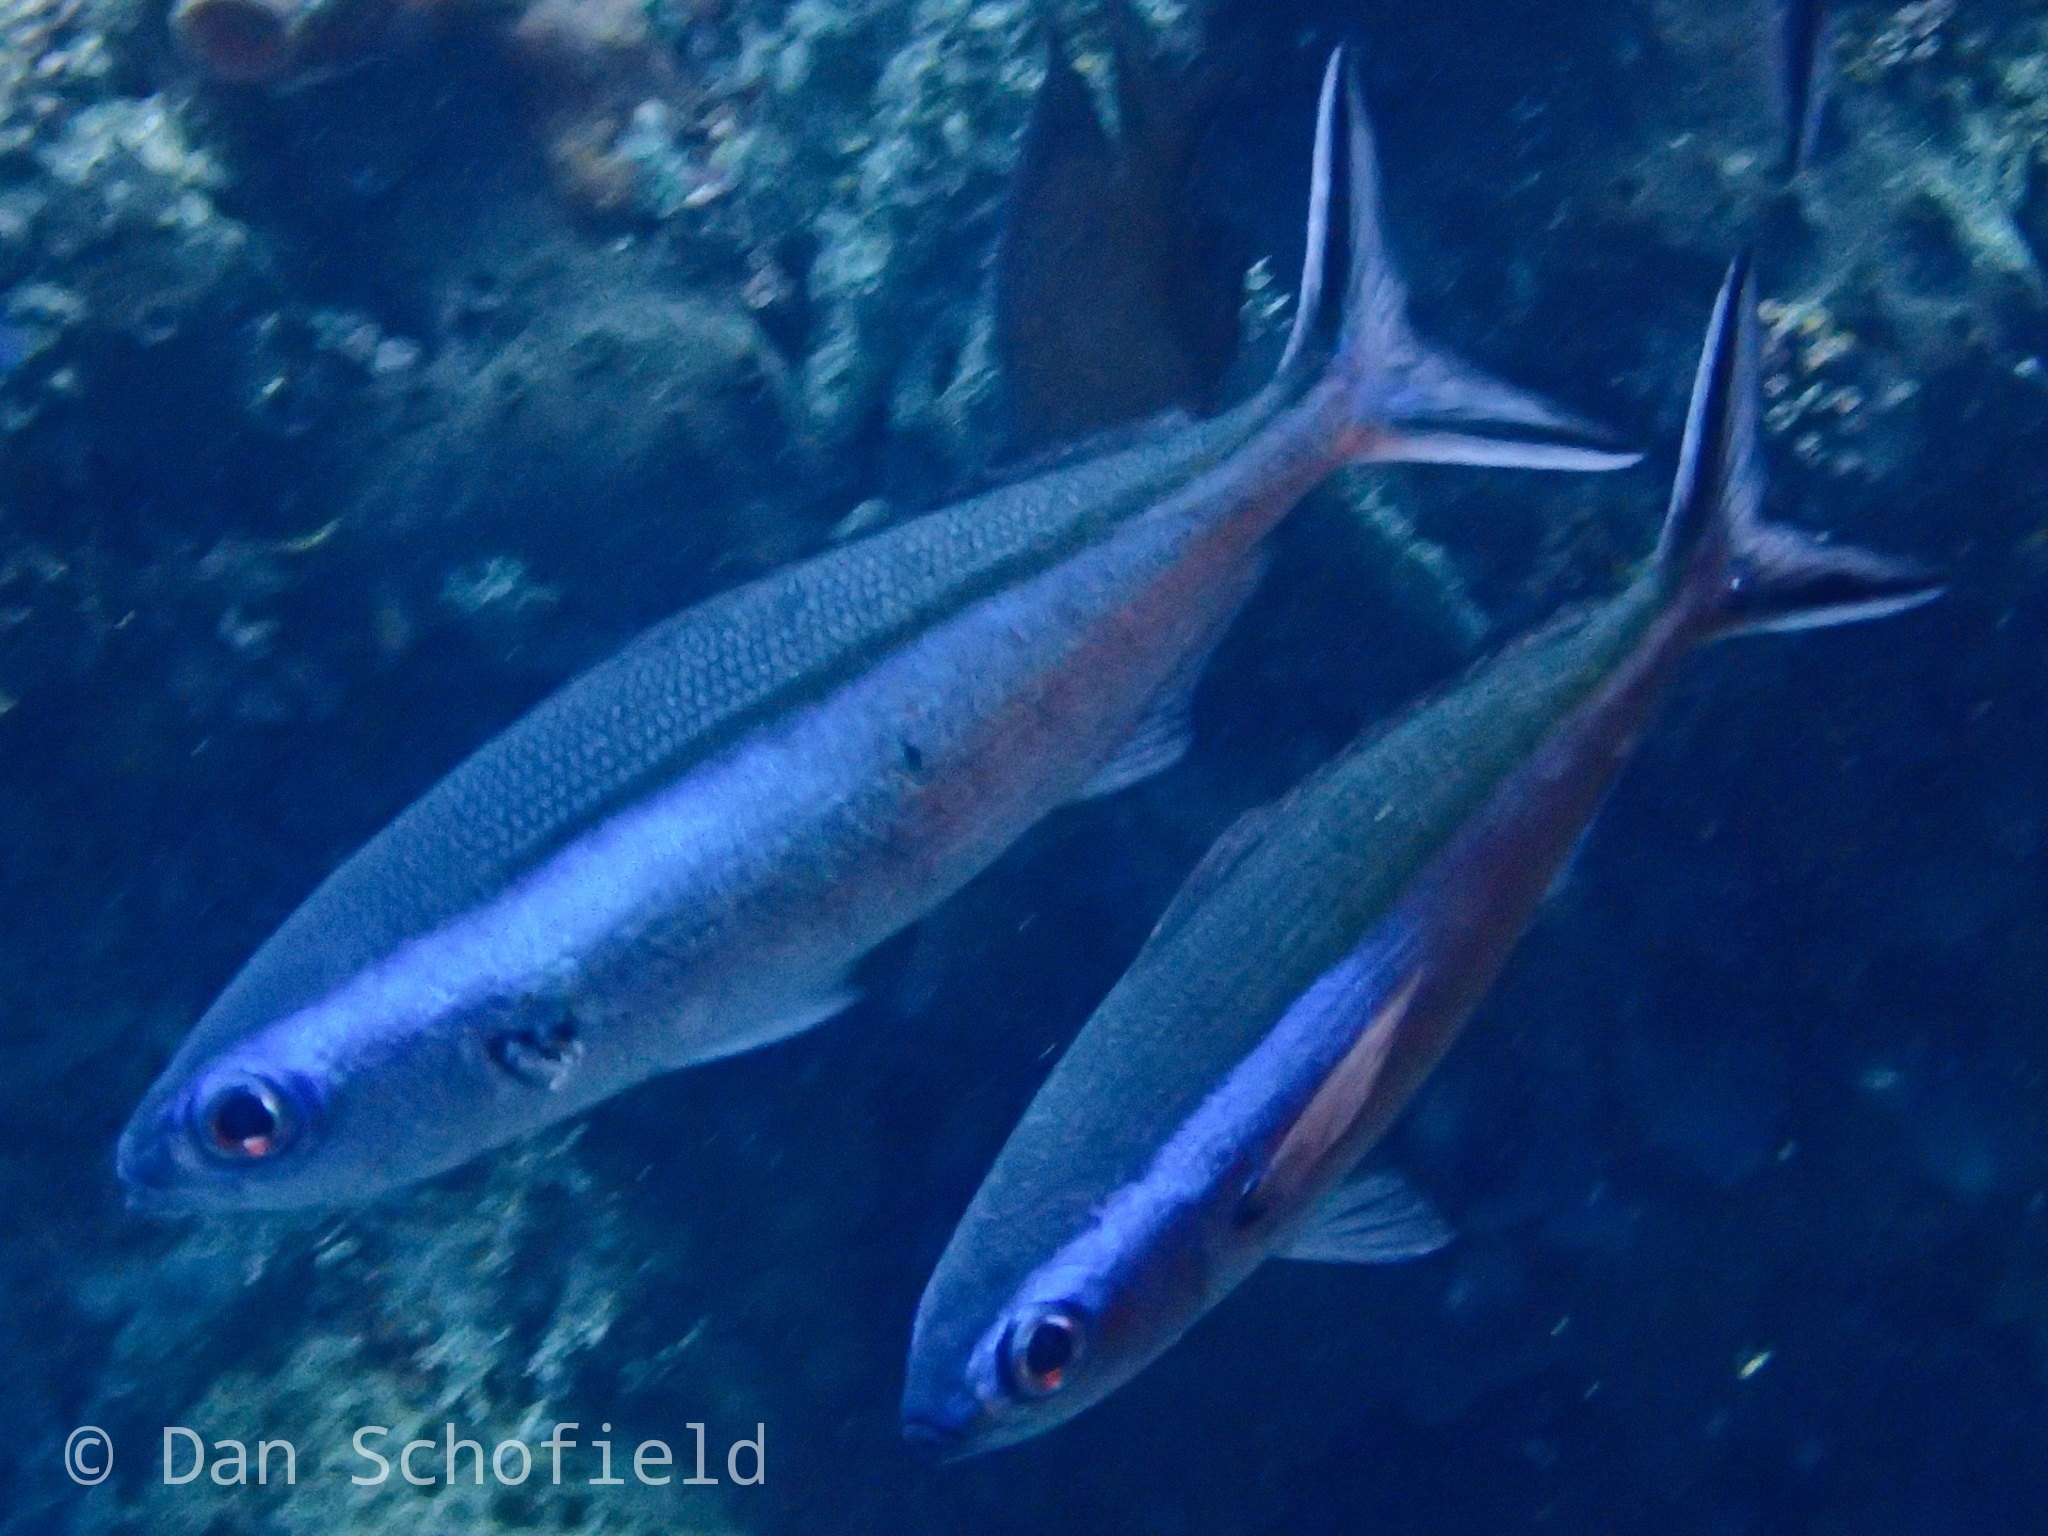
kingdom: Animalia
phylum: Chordata
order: Perciformes
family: Caesionidae
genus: Pterocaesio
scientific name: Pterocaesio tile
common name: Dark-banded fusilier
